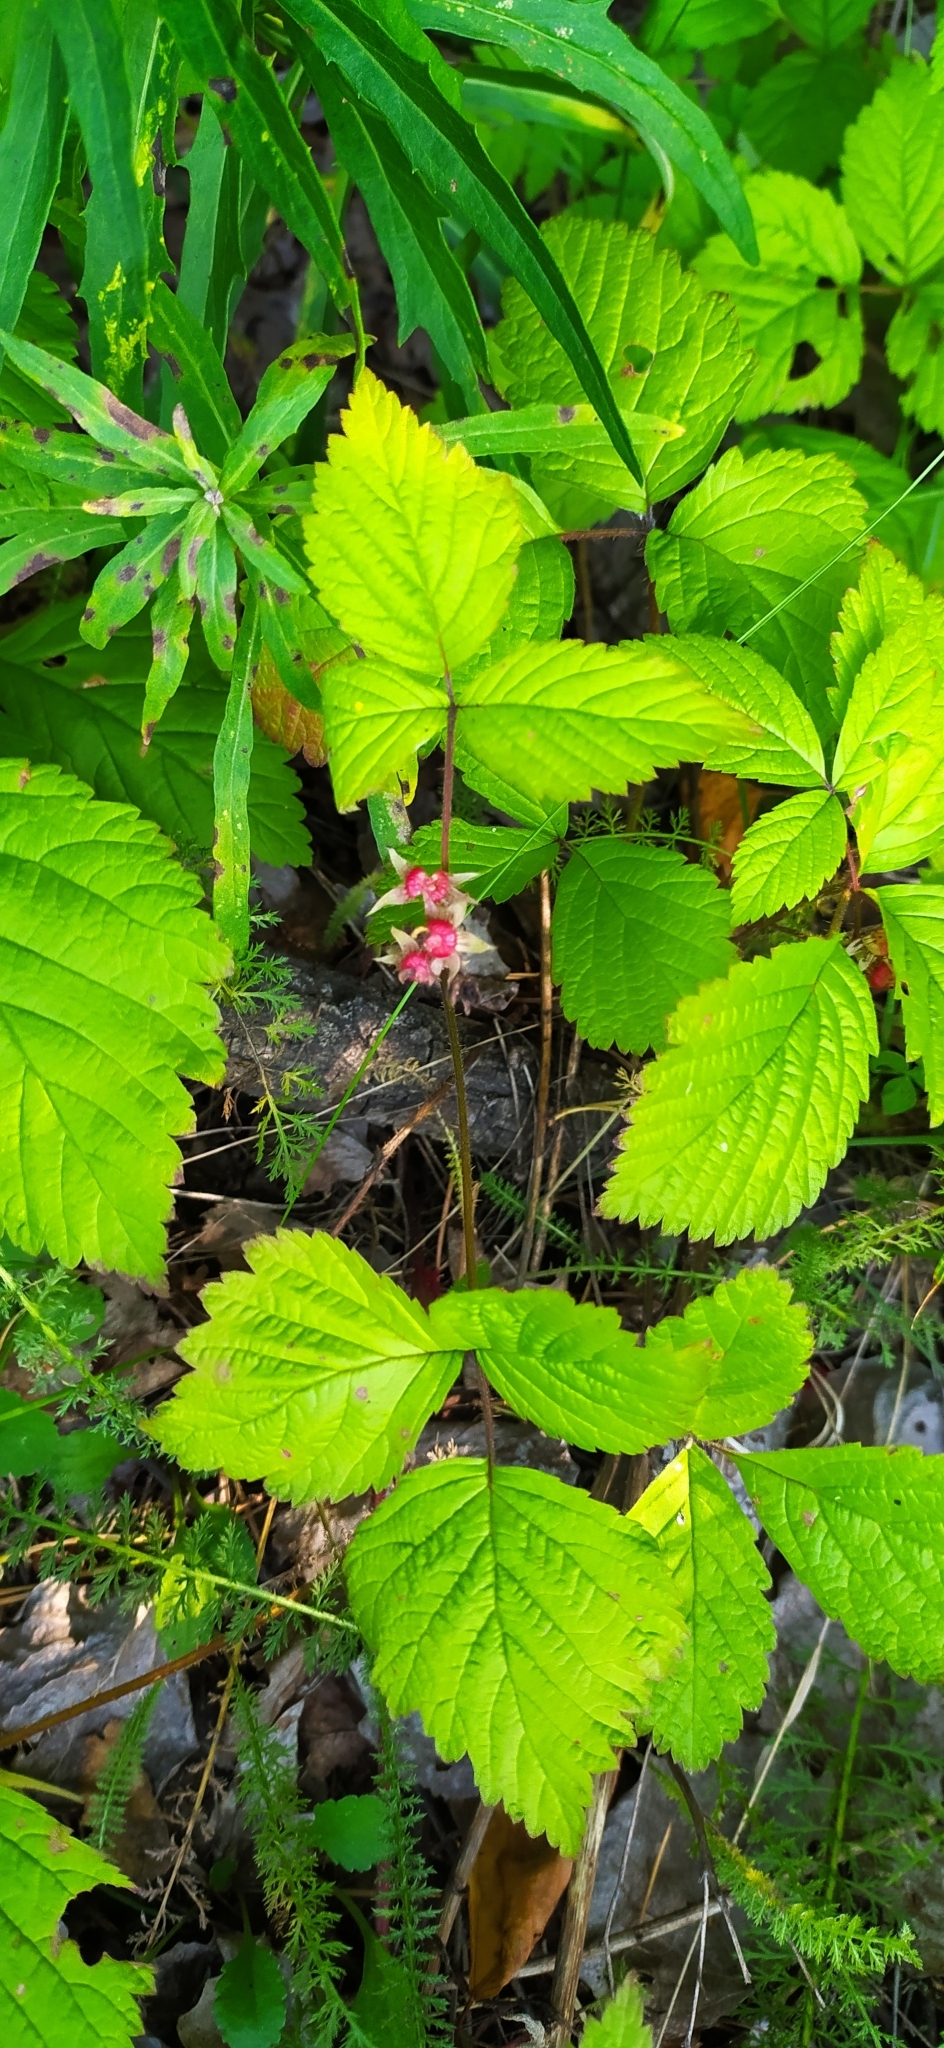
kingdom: Plantae
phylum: Tracheophyta
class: Magnoliopsida
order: Rosales
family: Rosaceae
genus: Rubus
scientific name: Rubus saxatilis
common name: Stone bramble
